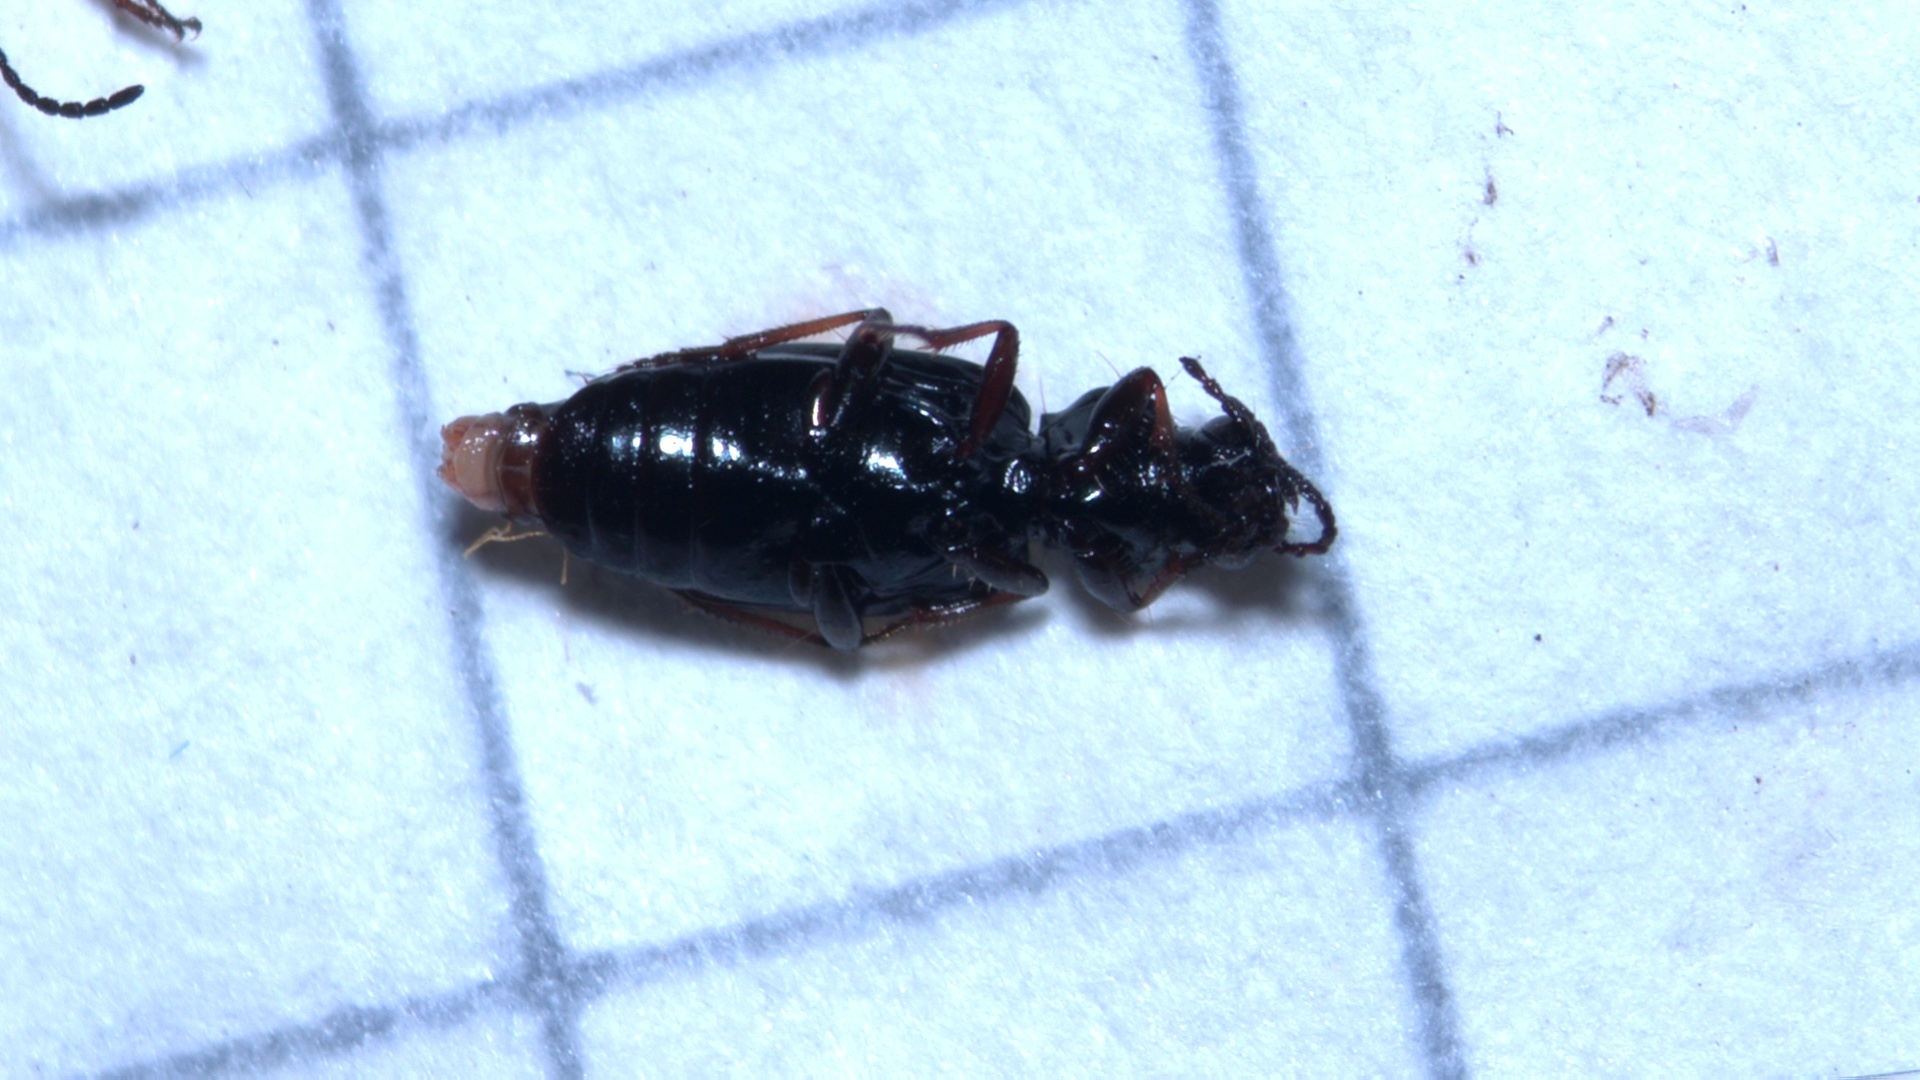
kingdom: Animalia
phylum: Arthropoda
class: Insecta
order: Coleoptera
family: Carabidae
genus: Bembidion
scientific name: Bembidion lampros
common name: Shiny riverbank ground beetle
